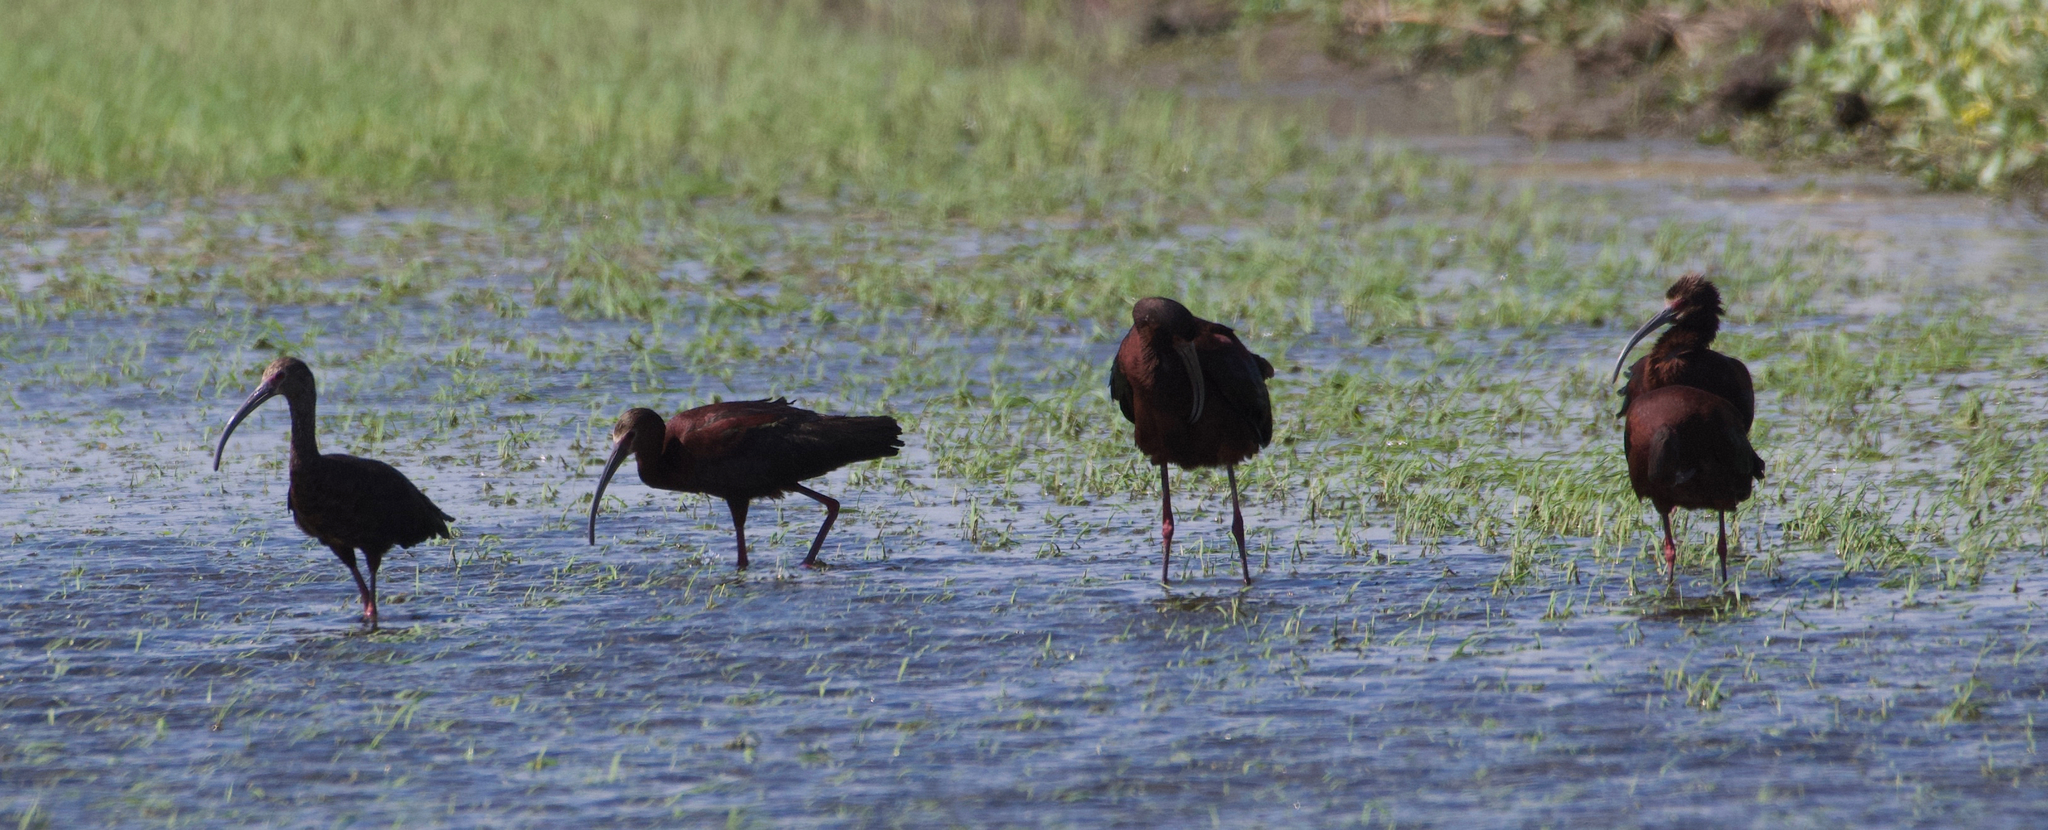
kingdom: Animalia
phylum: Chordata
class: Aves
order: Pelecaniformes
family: Threskiornithidae
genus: Plegadis
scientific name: Plegadis chihi
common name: White-faced ibis
